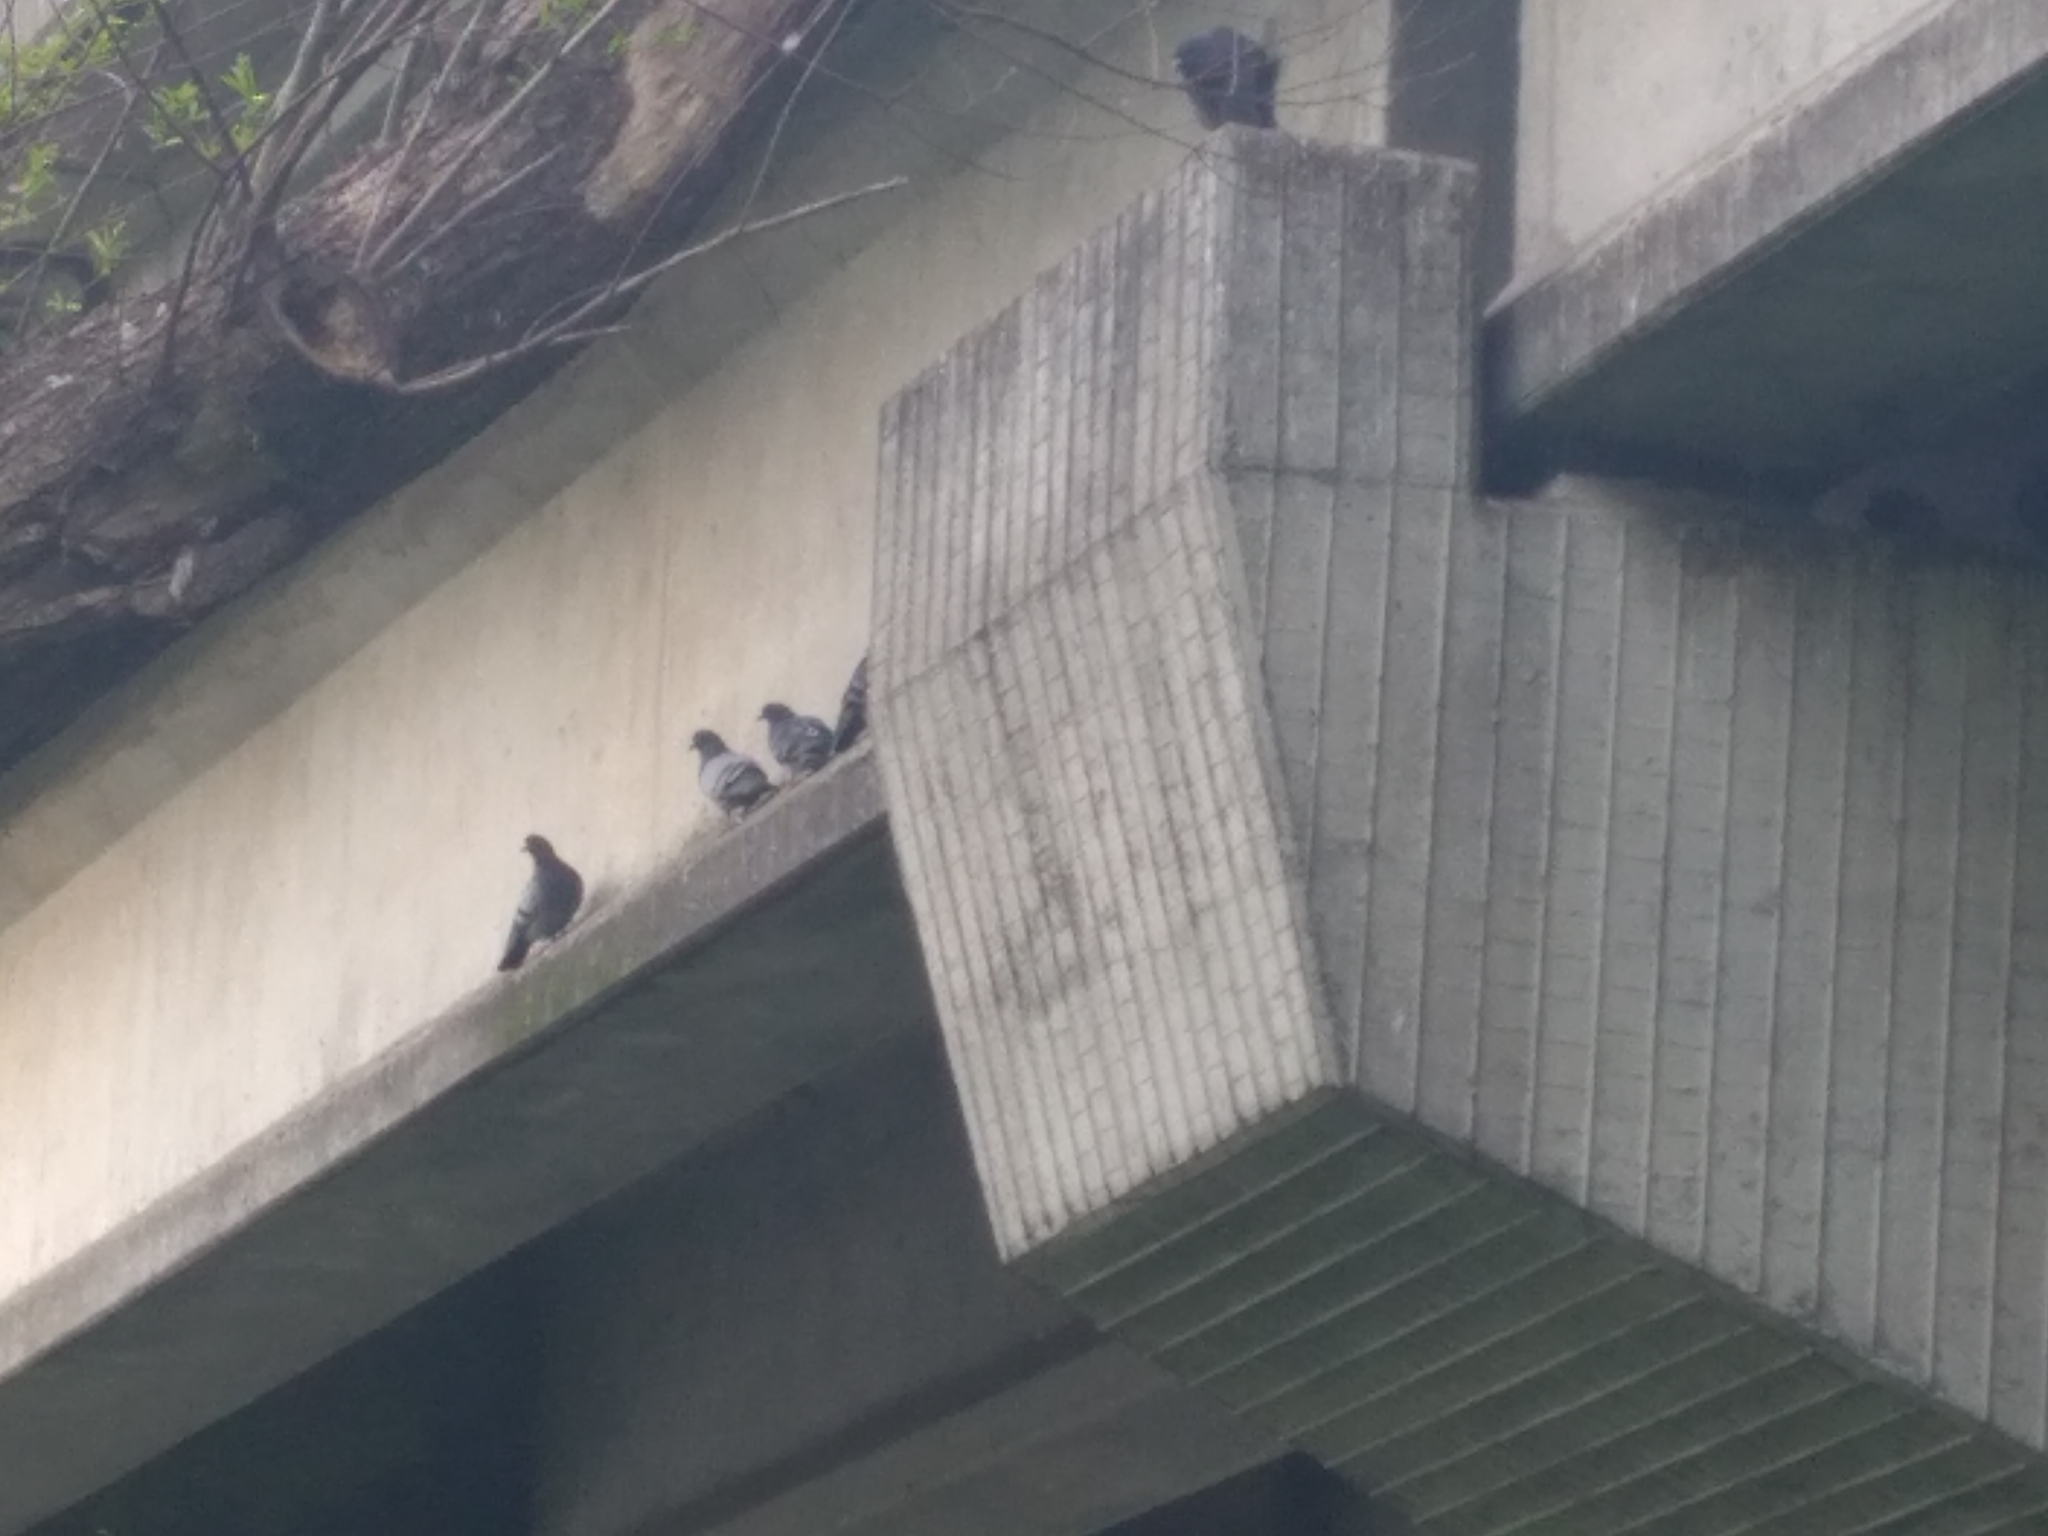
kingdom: Animalia
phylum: Chordata
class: Aves
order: Columbiformes
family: Columbidae
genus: Columba
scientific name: Columba livia
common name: Rock pigeon
